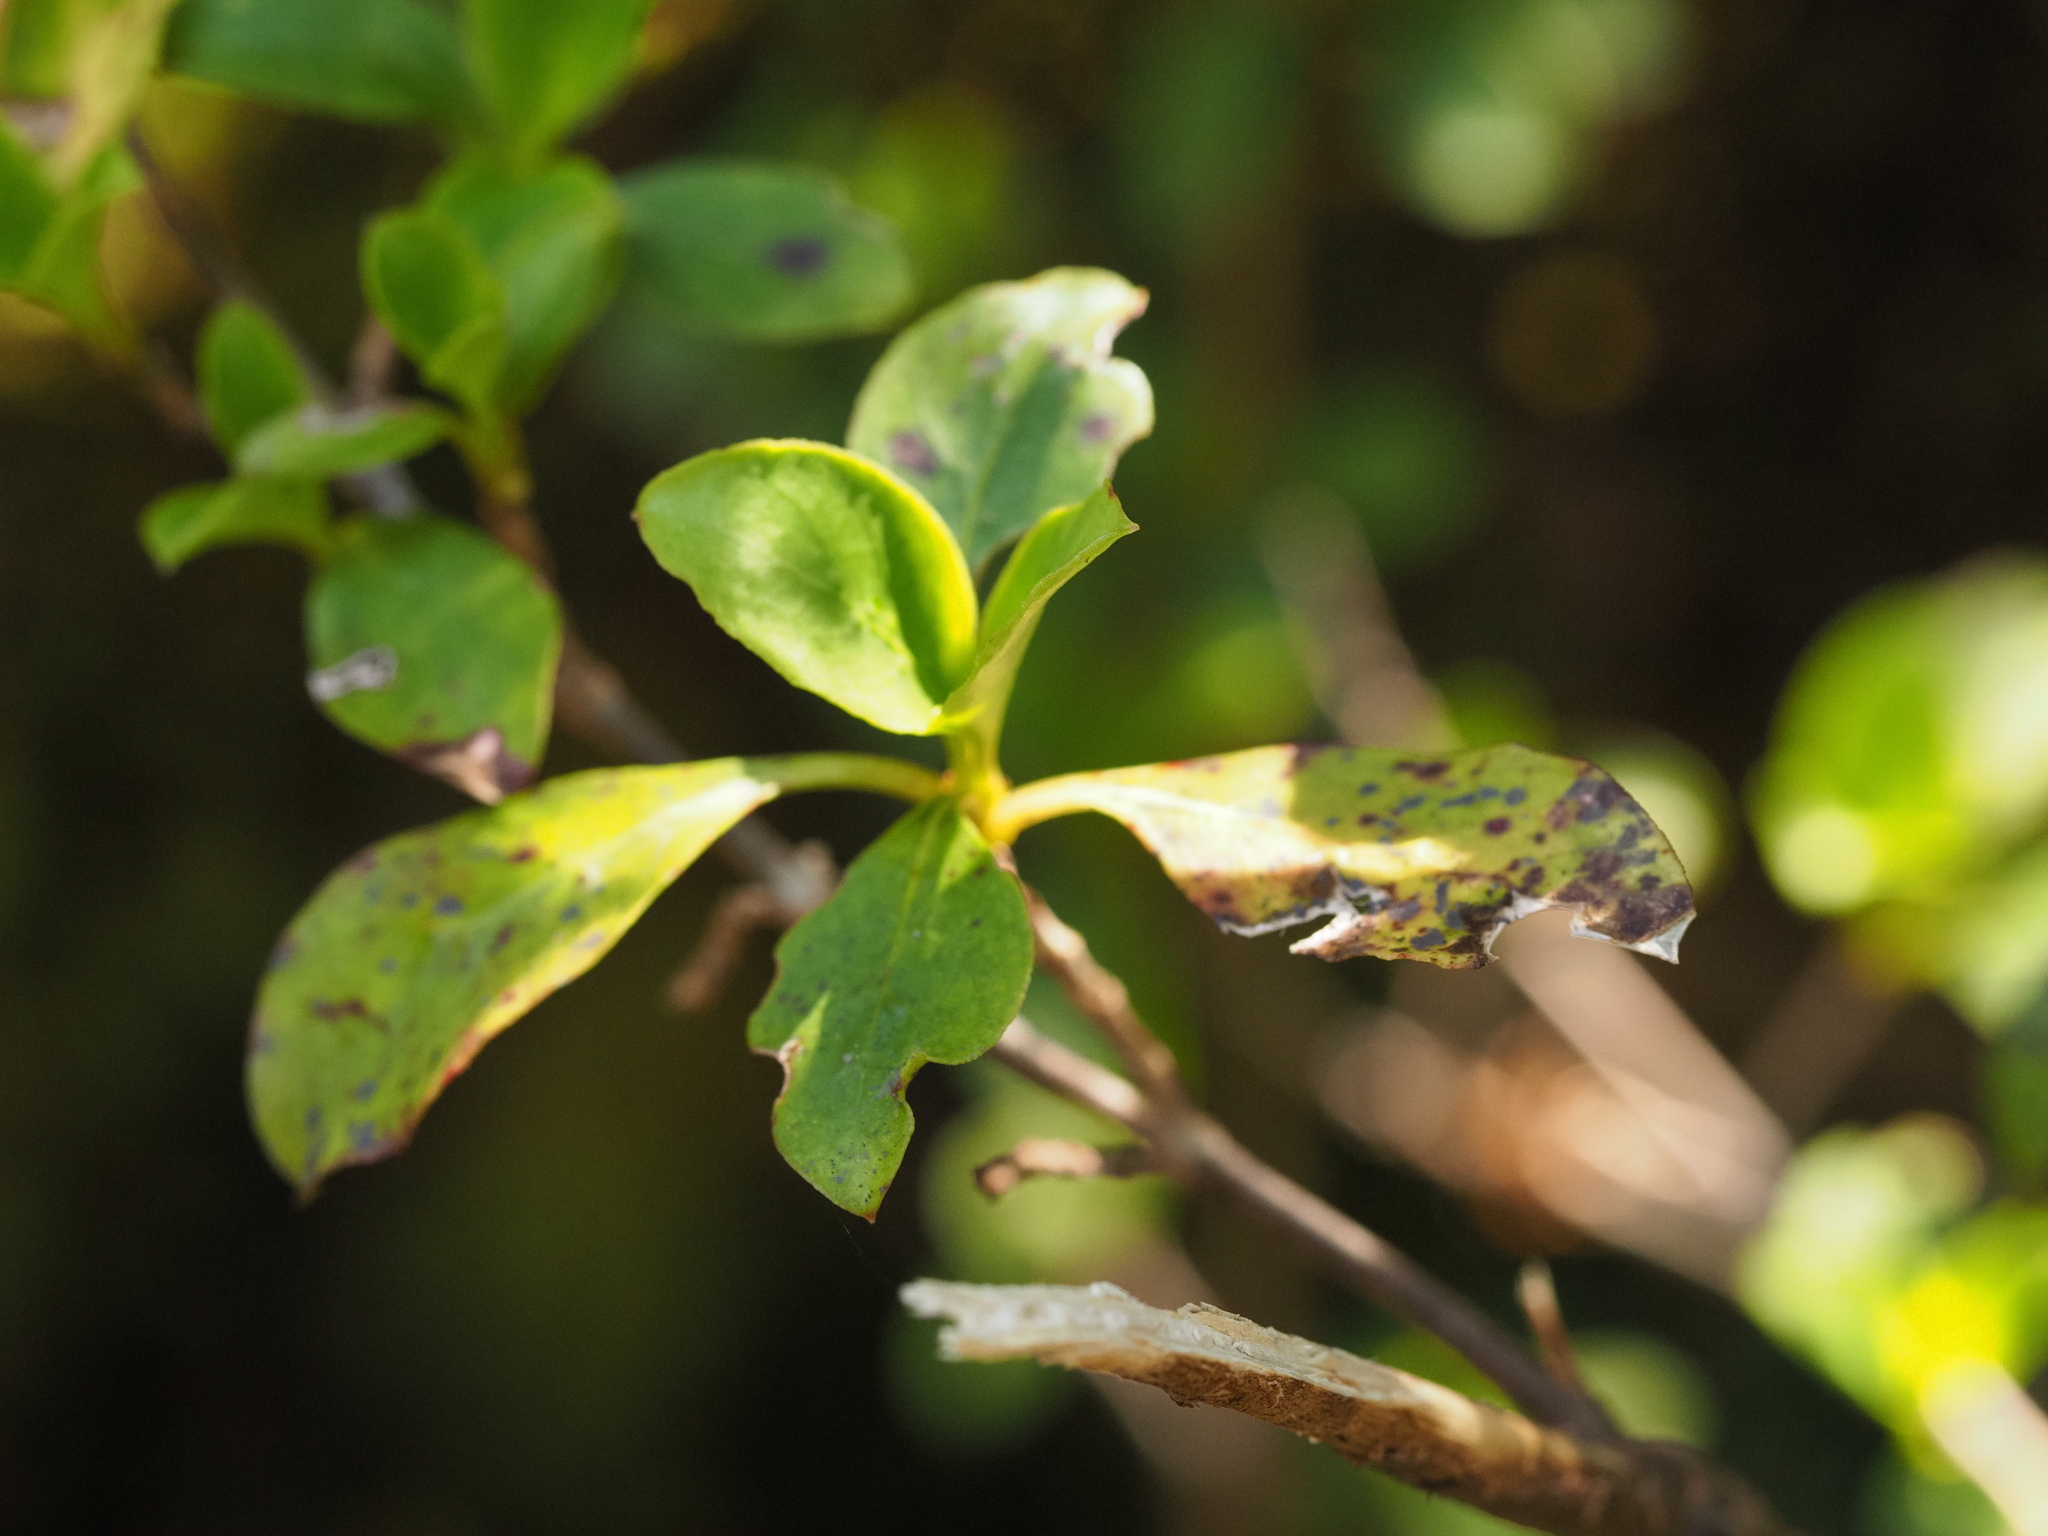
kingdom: Plantae
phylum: Tracheophyta
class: Magnoliopsida
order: Gentianales
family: Rubiaceae
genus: Coprosma
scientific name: Coprosma foetidissima
